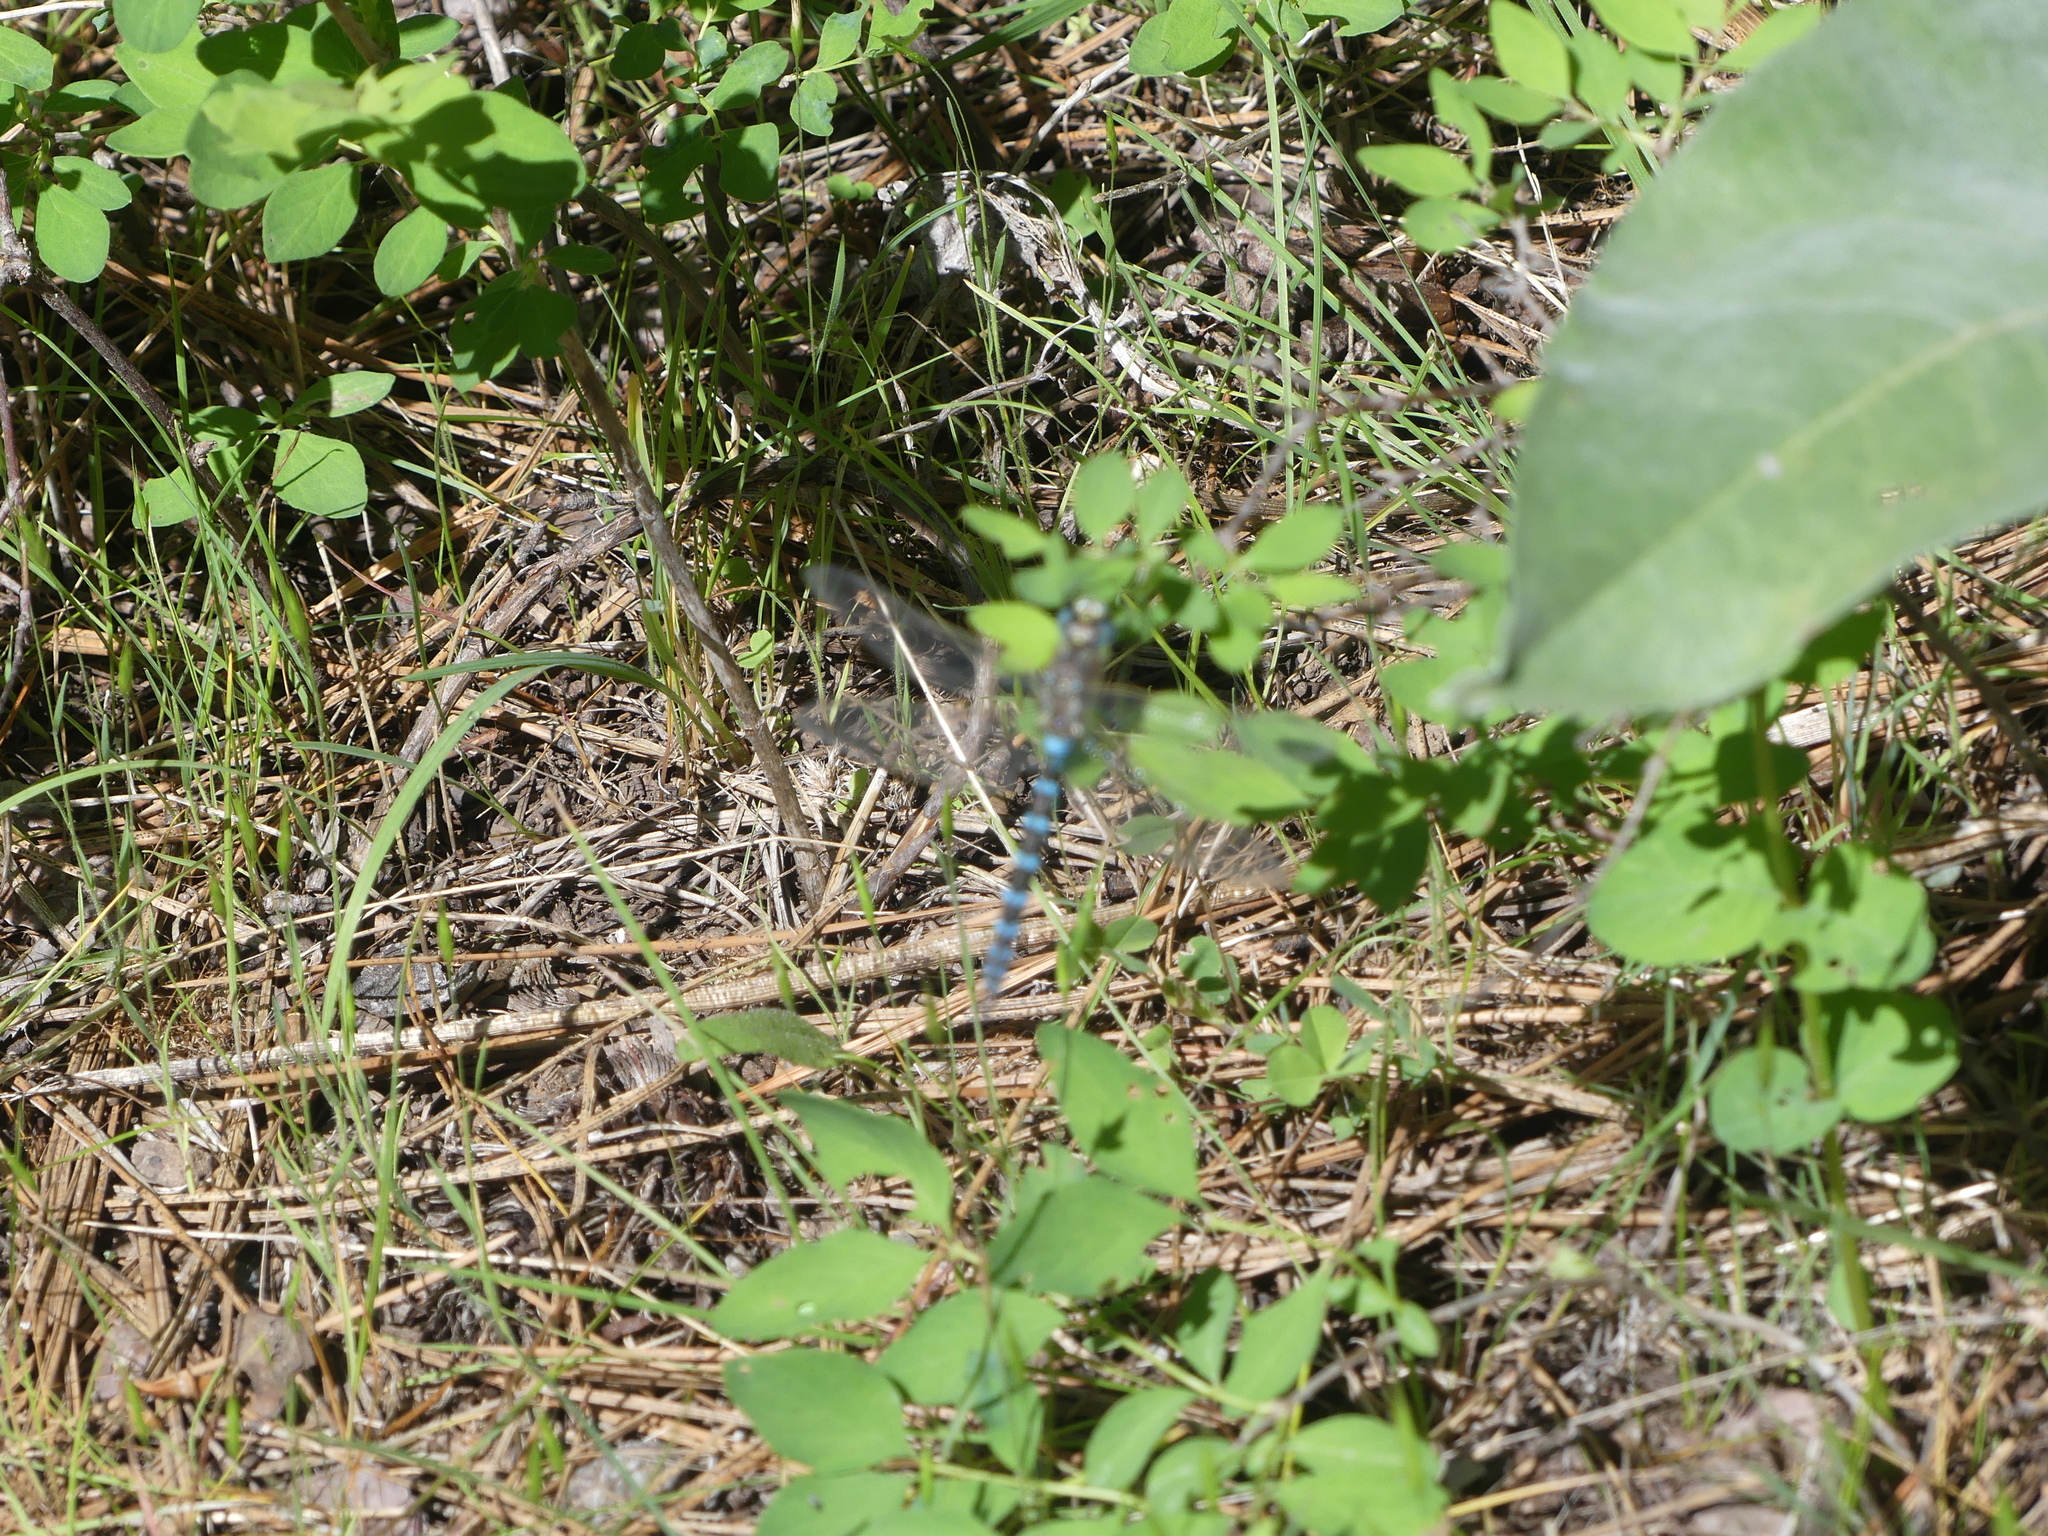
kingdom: Animalia
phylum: Arthropoda
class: Insecta
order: Odonata
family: Aeshnidae
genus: Rhionaeschna
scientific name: Rhionaeschna californica
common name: California darner
